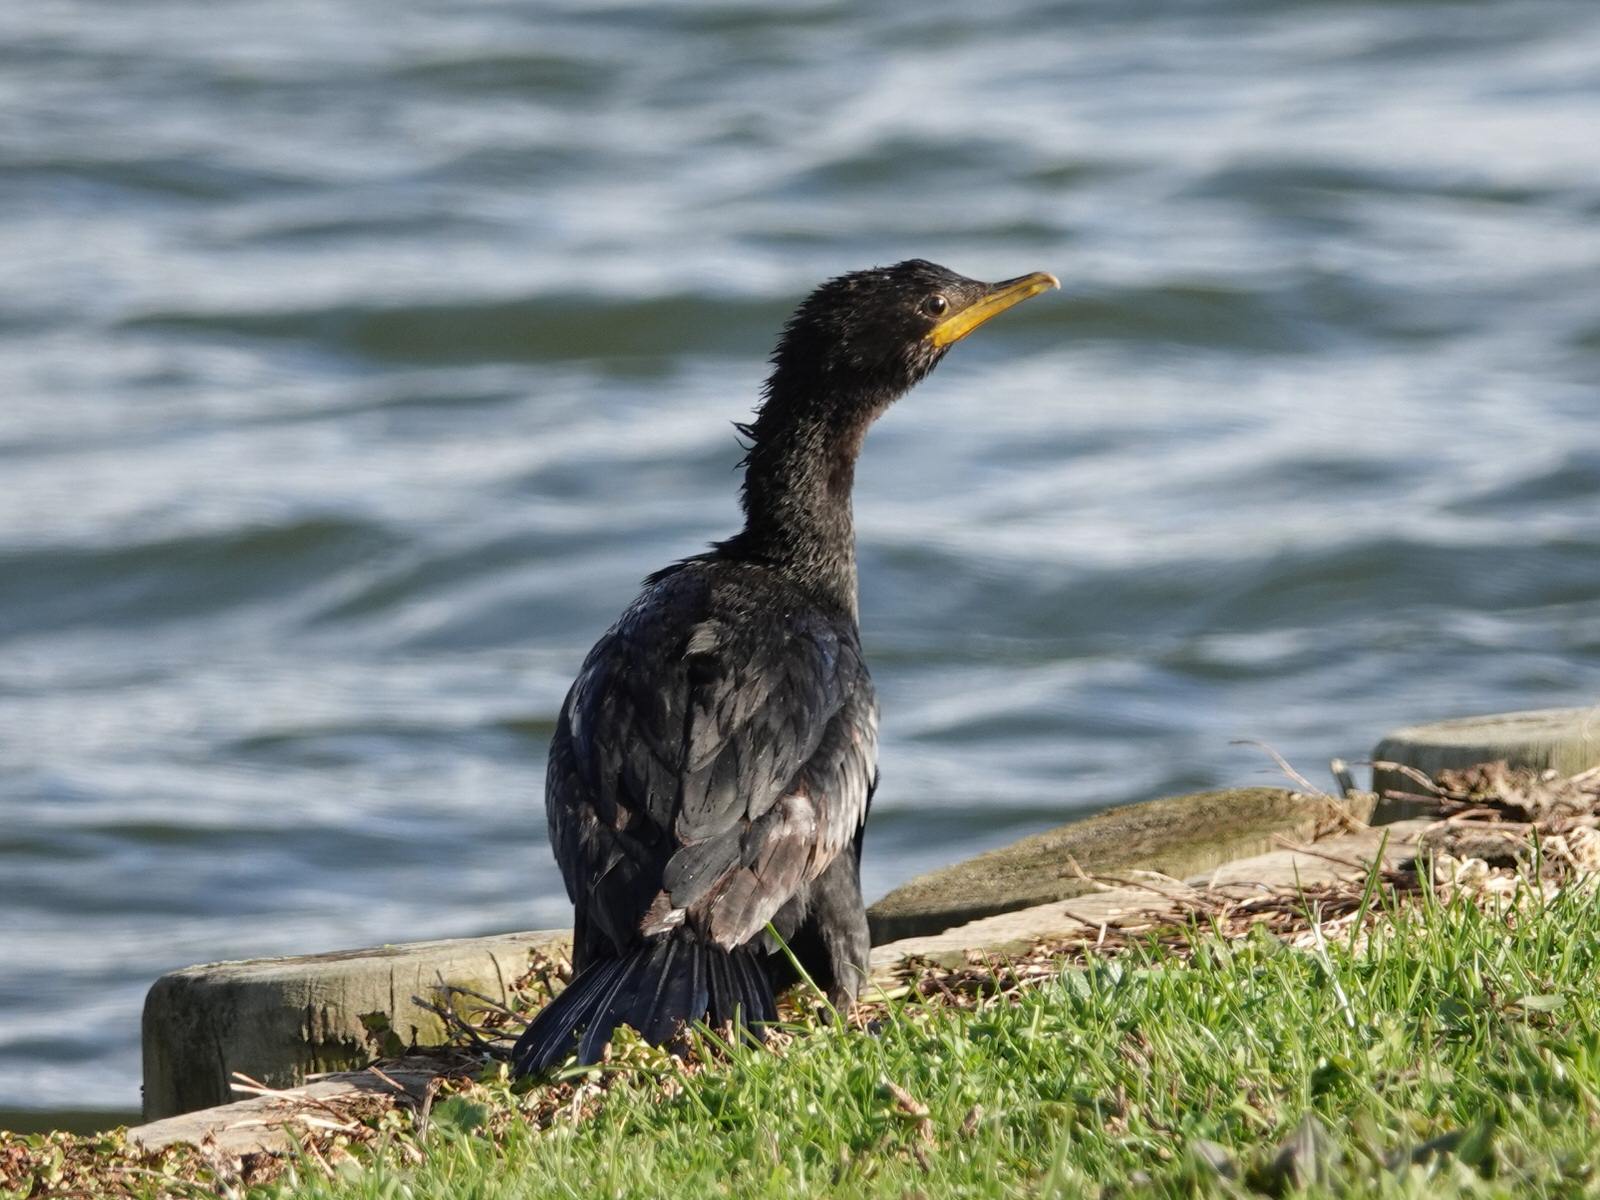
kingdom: Animalia
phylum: Chordata
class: Aves
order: Suliformes
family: Phalacrocoracidae
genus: Microcarbo
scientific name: Microcarbo melanoleucos
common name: Little pied cormorant
